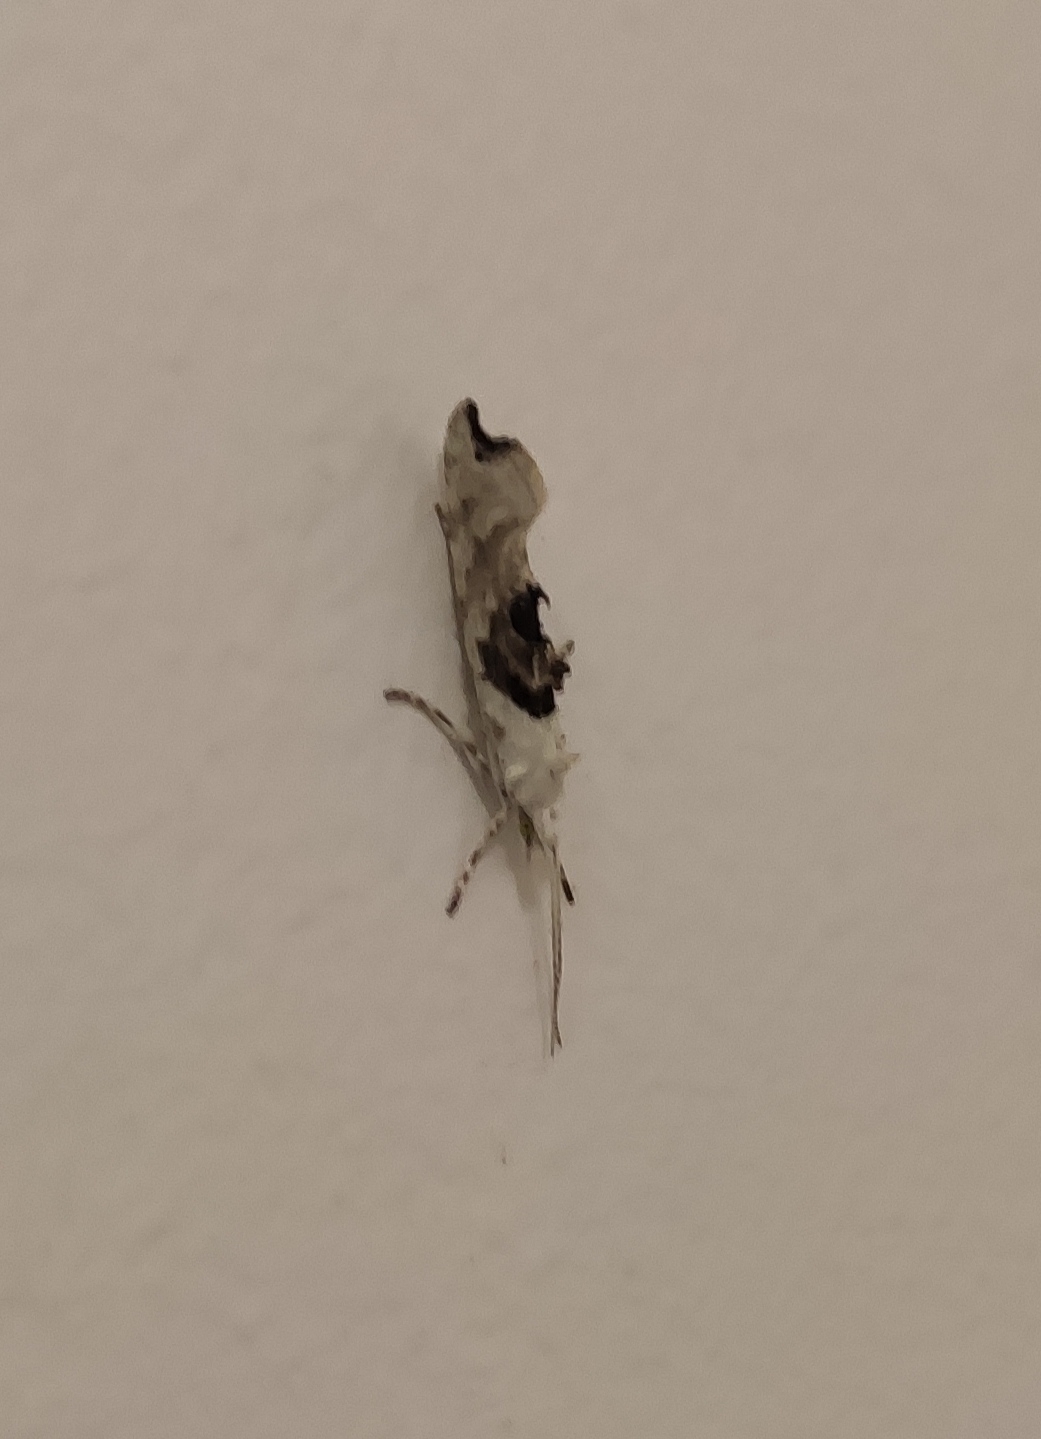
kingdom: Animalia
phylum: Arthropoda
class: Insecta
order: Lepidoptera
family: Plutellidae
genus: Ypsolophus
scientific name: Ypsolophus asperella
